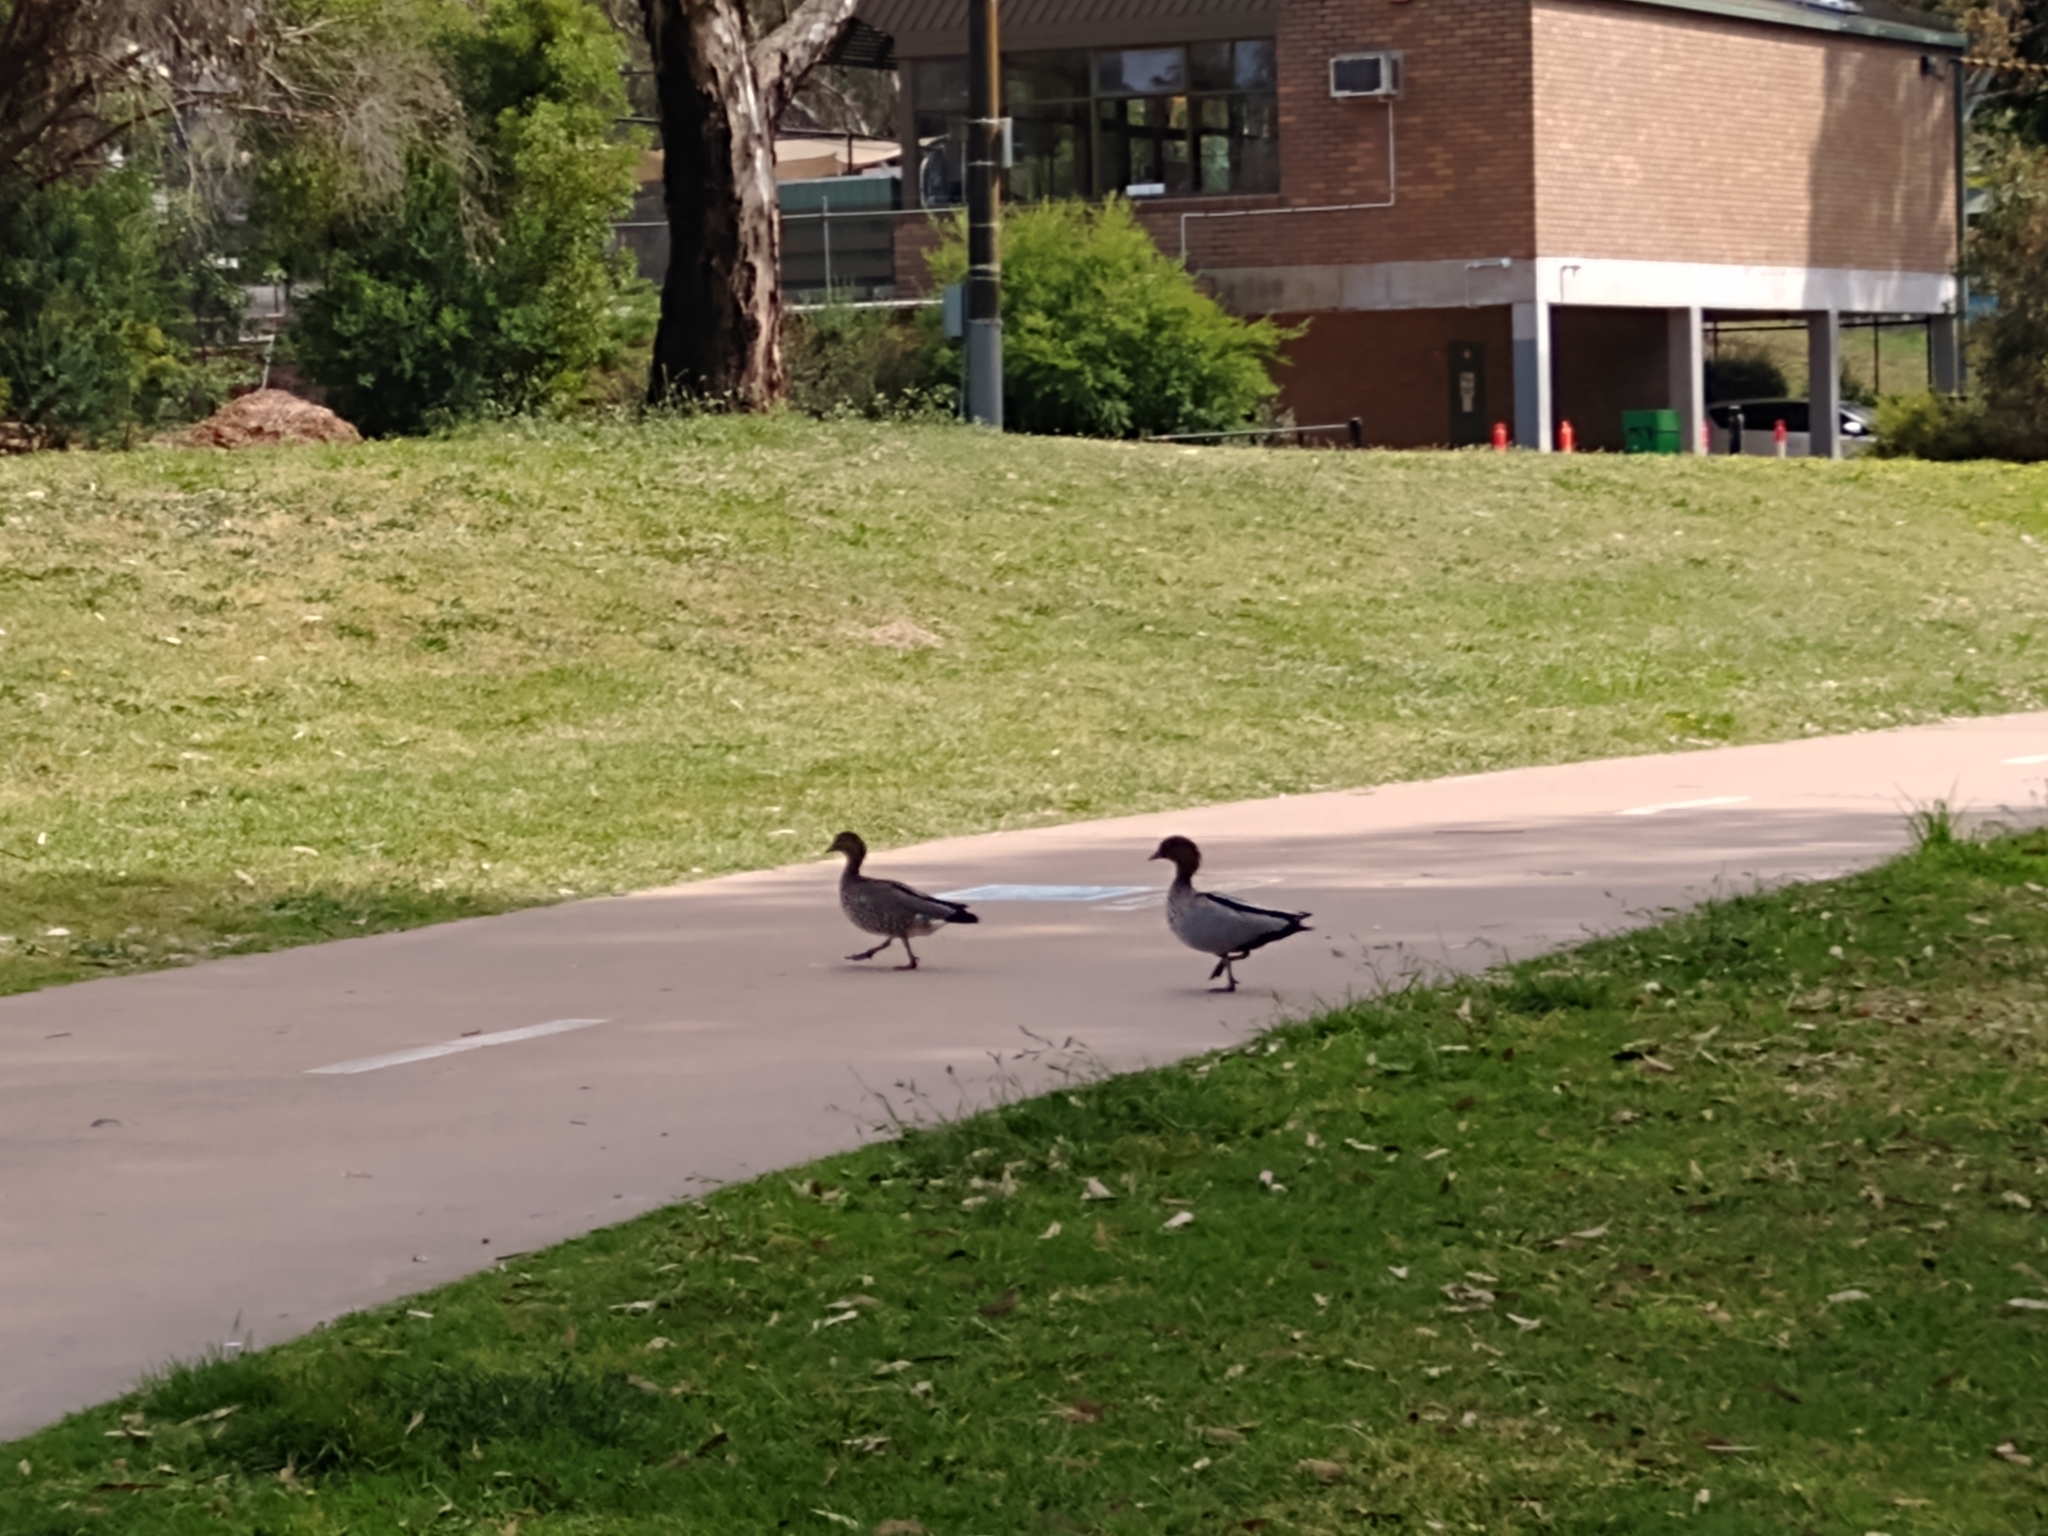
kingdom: Animalia
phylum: Chordata
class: Aves
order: Anseriformes
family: Anatidae
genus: Chenonetta
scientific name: Chenonetta jubata
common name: Maned duck
